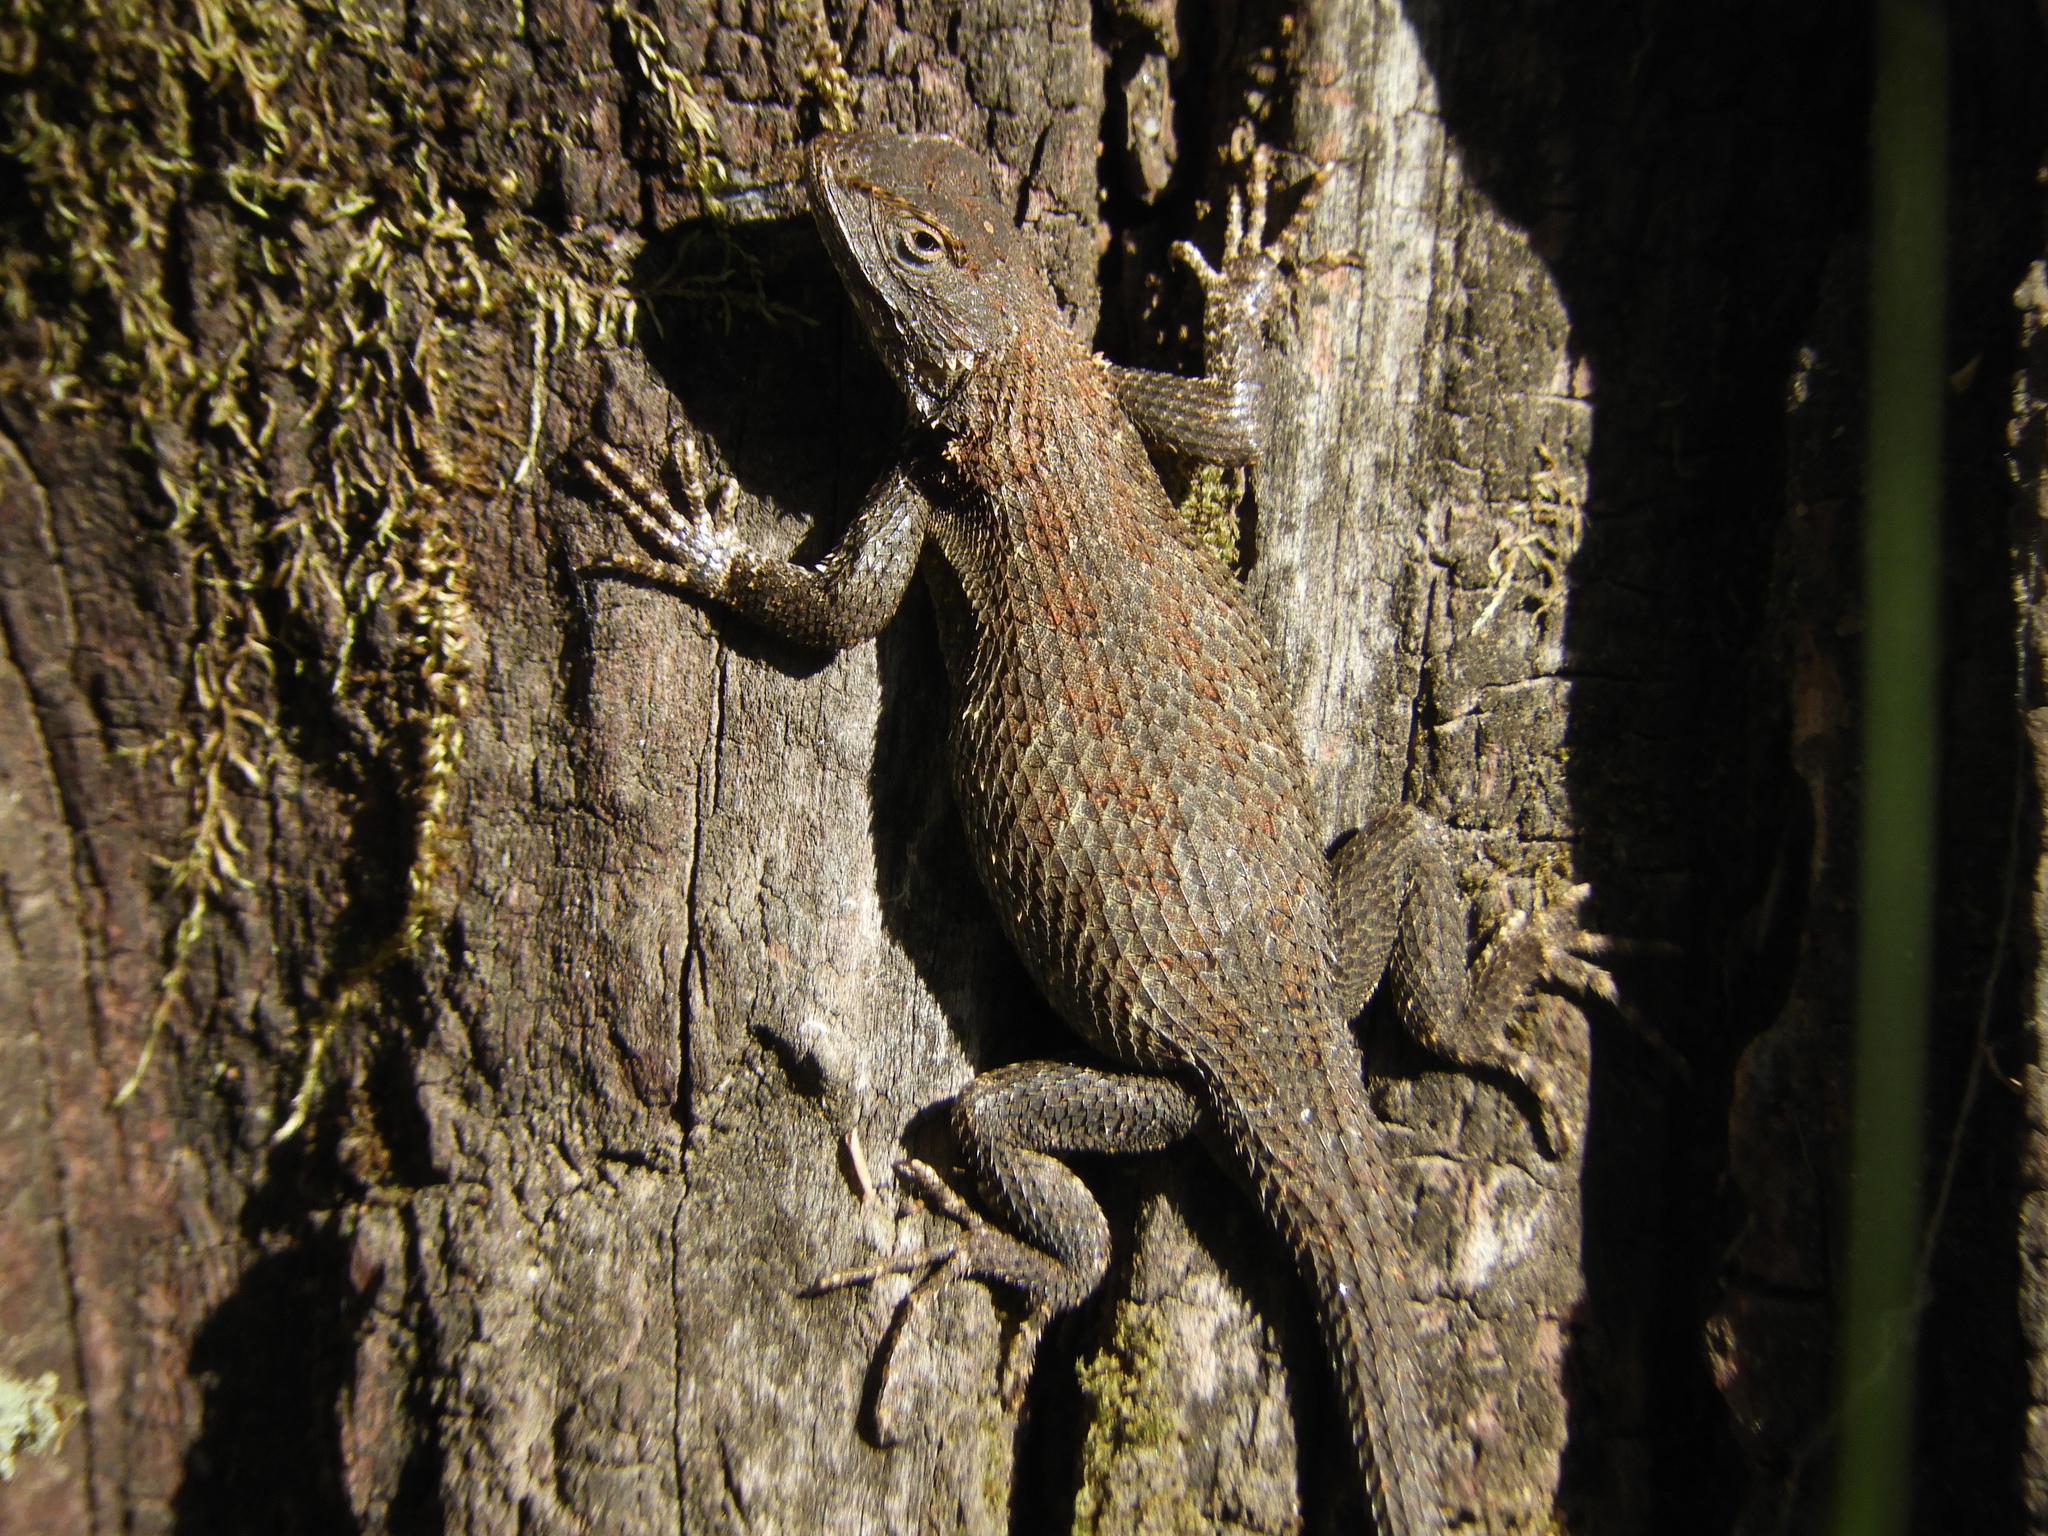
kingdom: Animalia
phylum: Chordata
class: Squamata
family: Phrynosomatidae
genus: Sceloporus
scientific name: Sceloporus occidentalis
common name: Western fence lizard
